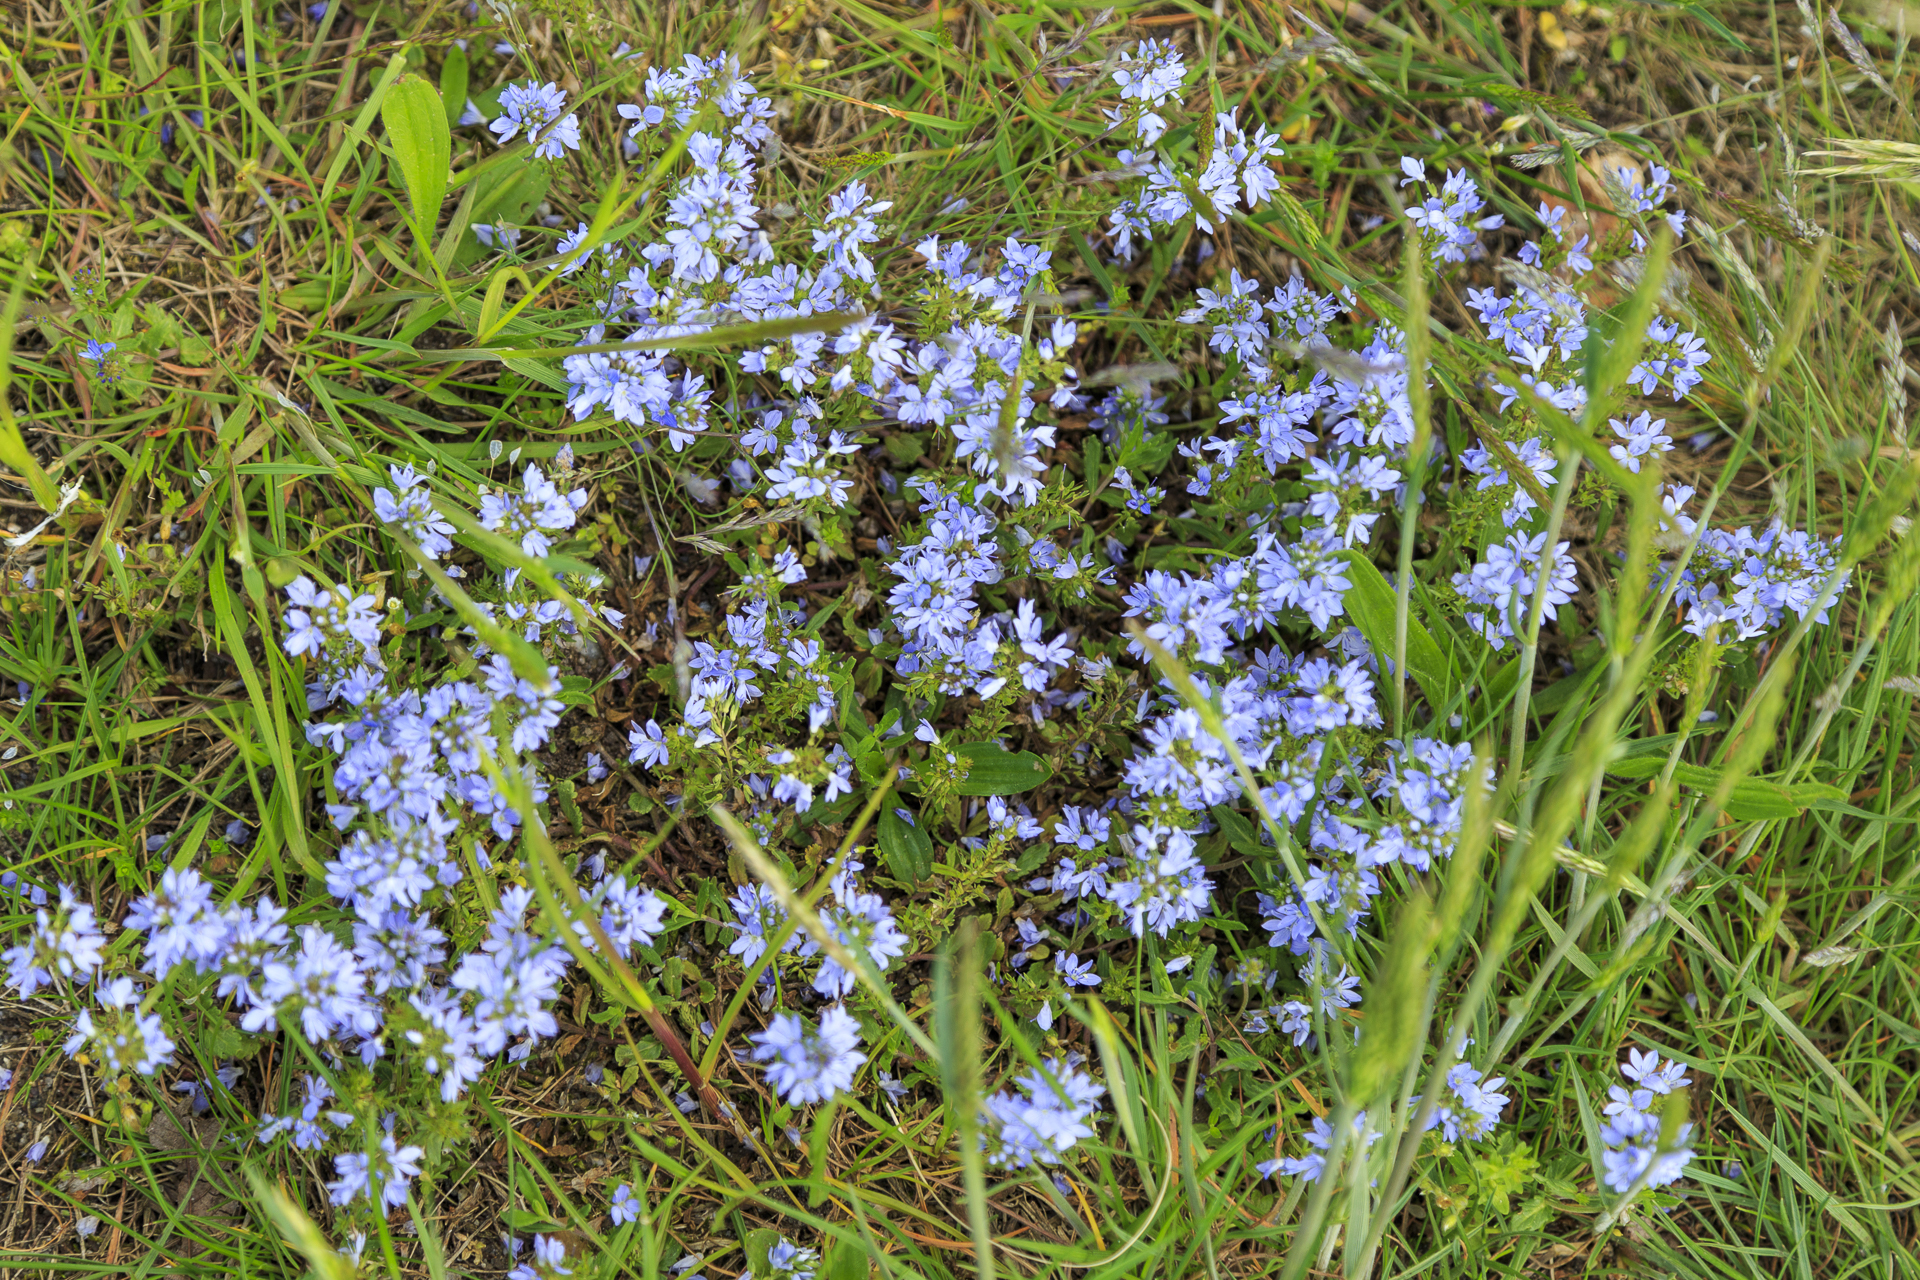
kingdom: Plantae
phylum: Tracheophyta
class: Magnoliopsida
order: Lamiales
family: Plantaginaceae
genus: Veronica
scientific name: Veronica prostrata
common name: Prostrate speedwell
